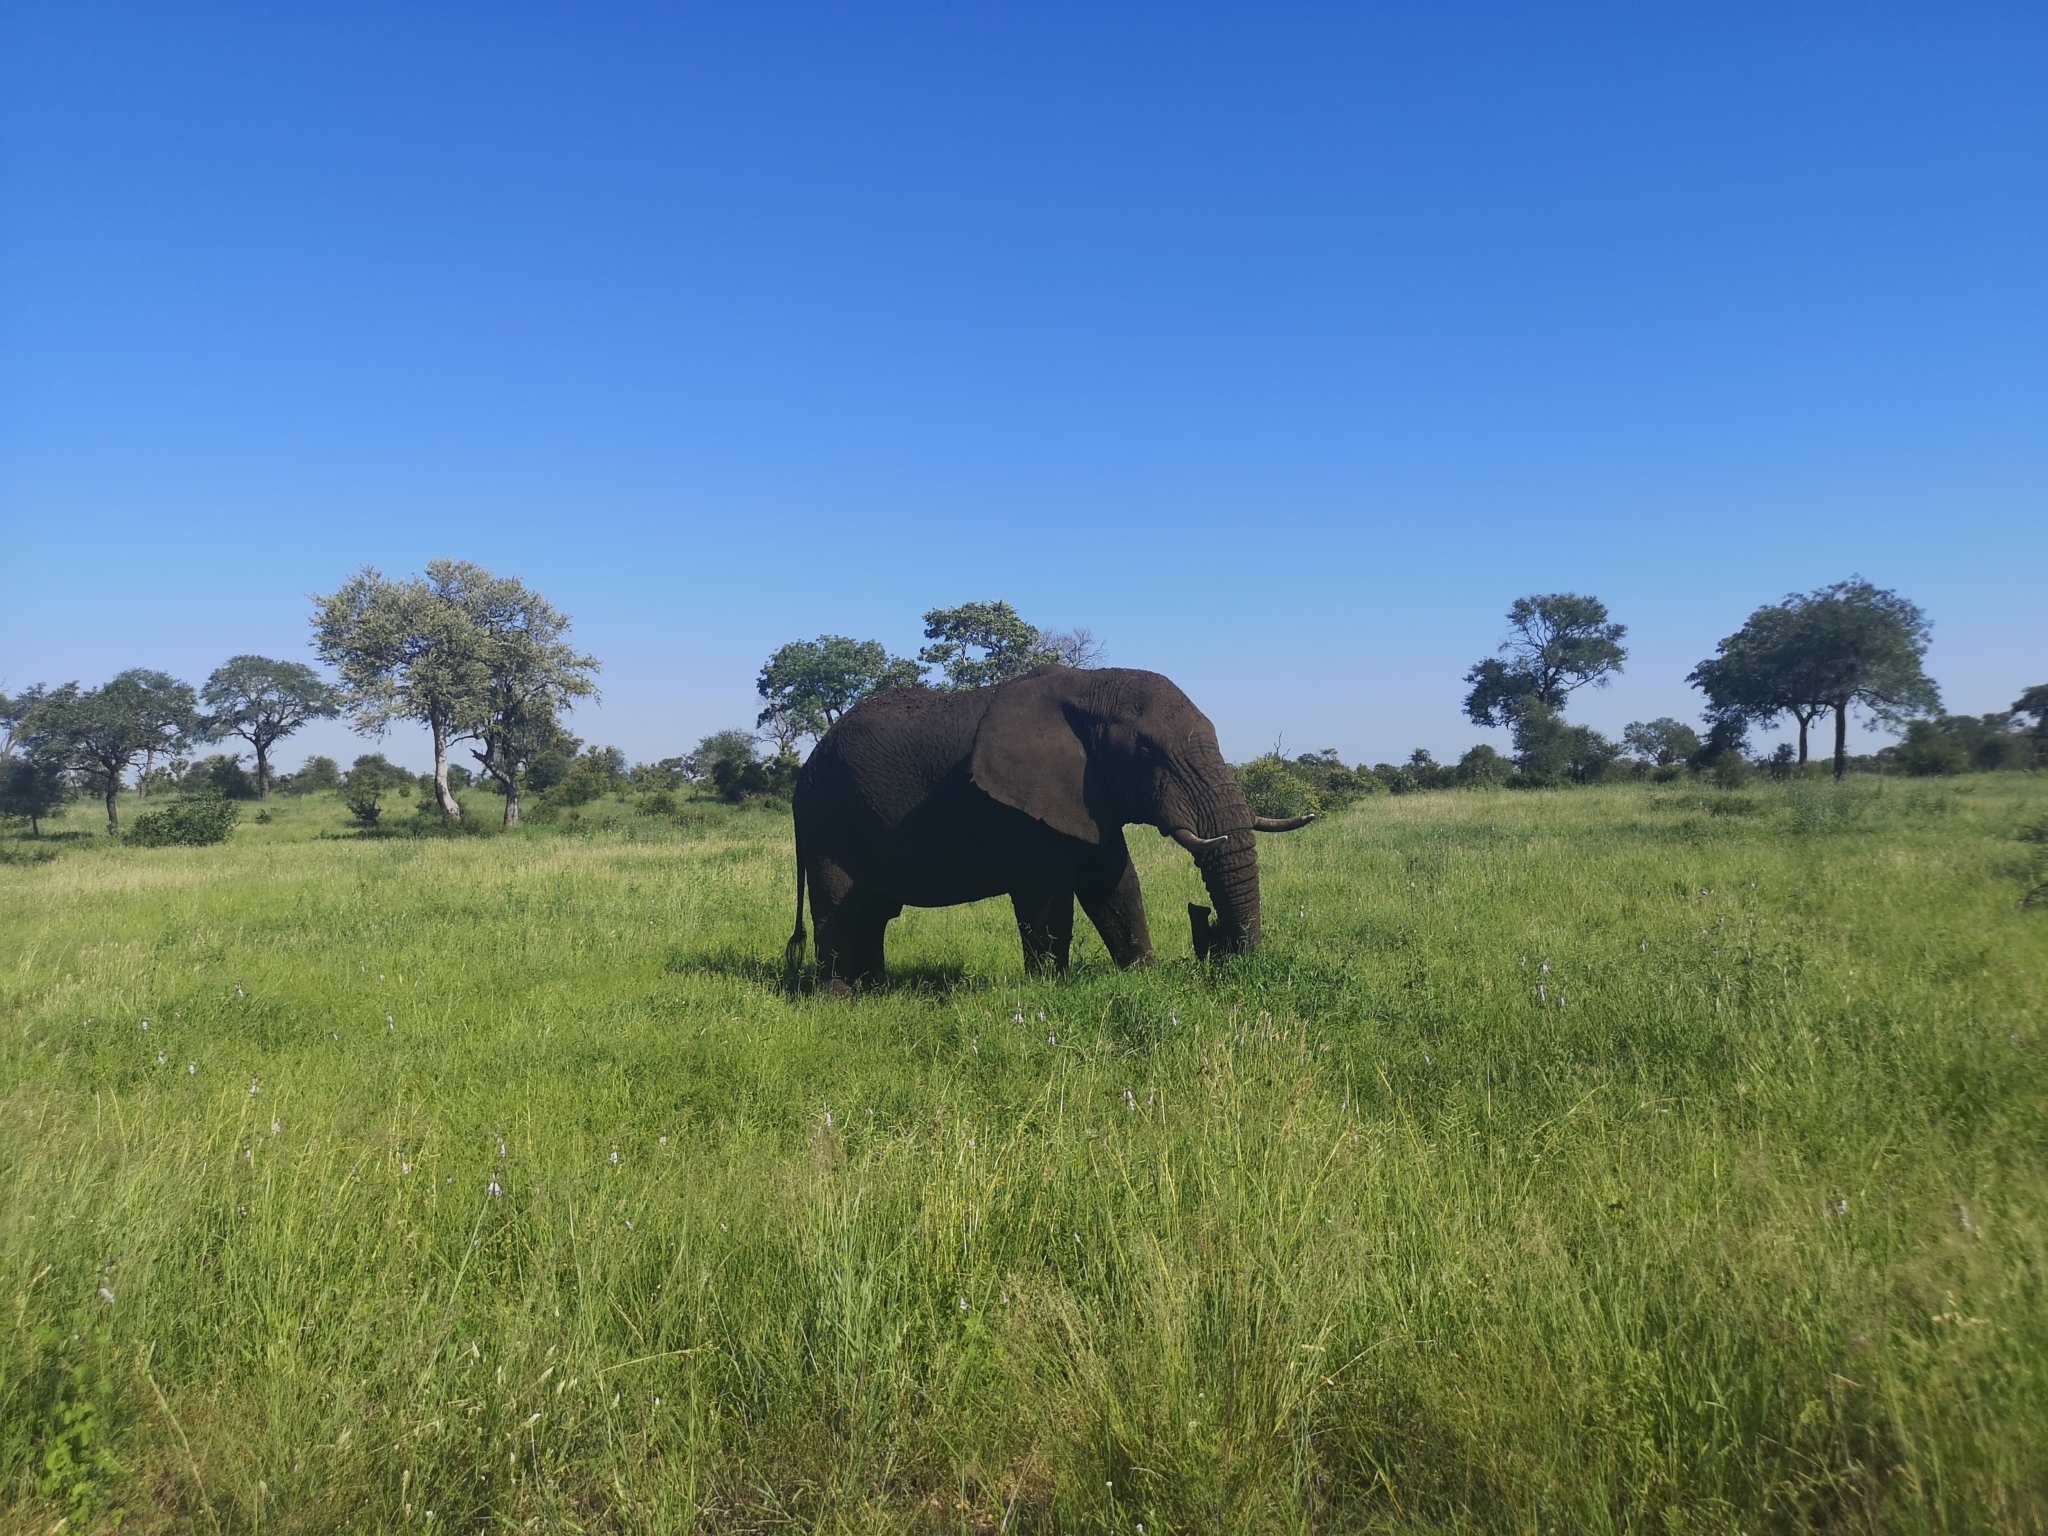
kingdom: Animalia
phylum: Chordata
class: Mammalia
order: Proboscidea
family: Elephantidae
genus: Loxodonta
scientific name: Loxodonta africana
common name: African elephant
